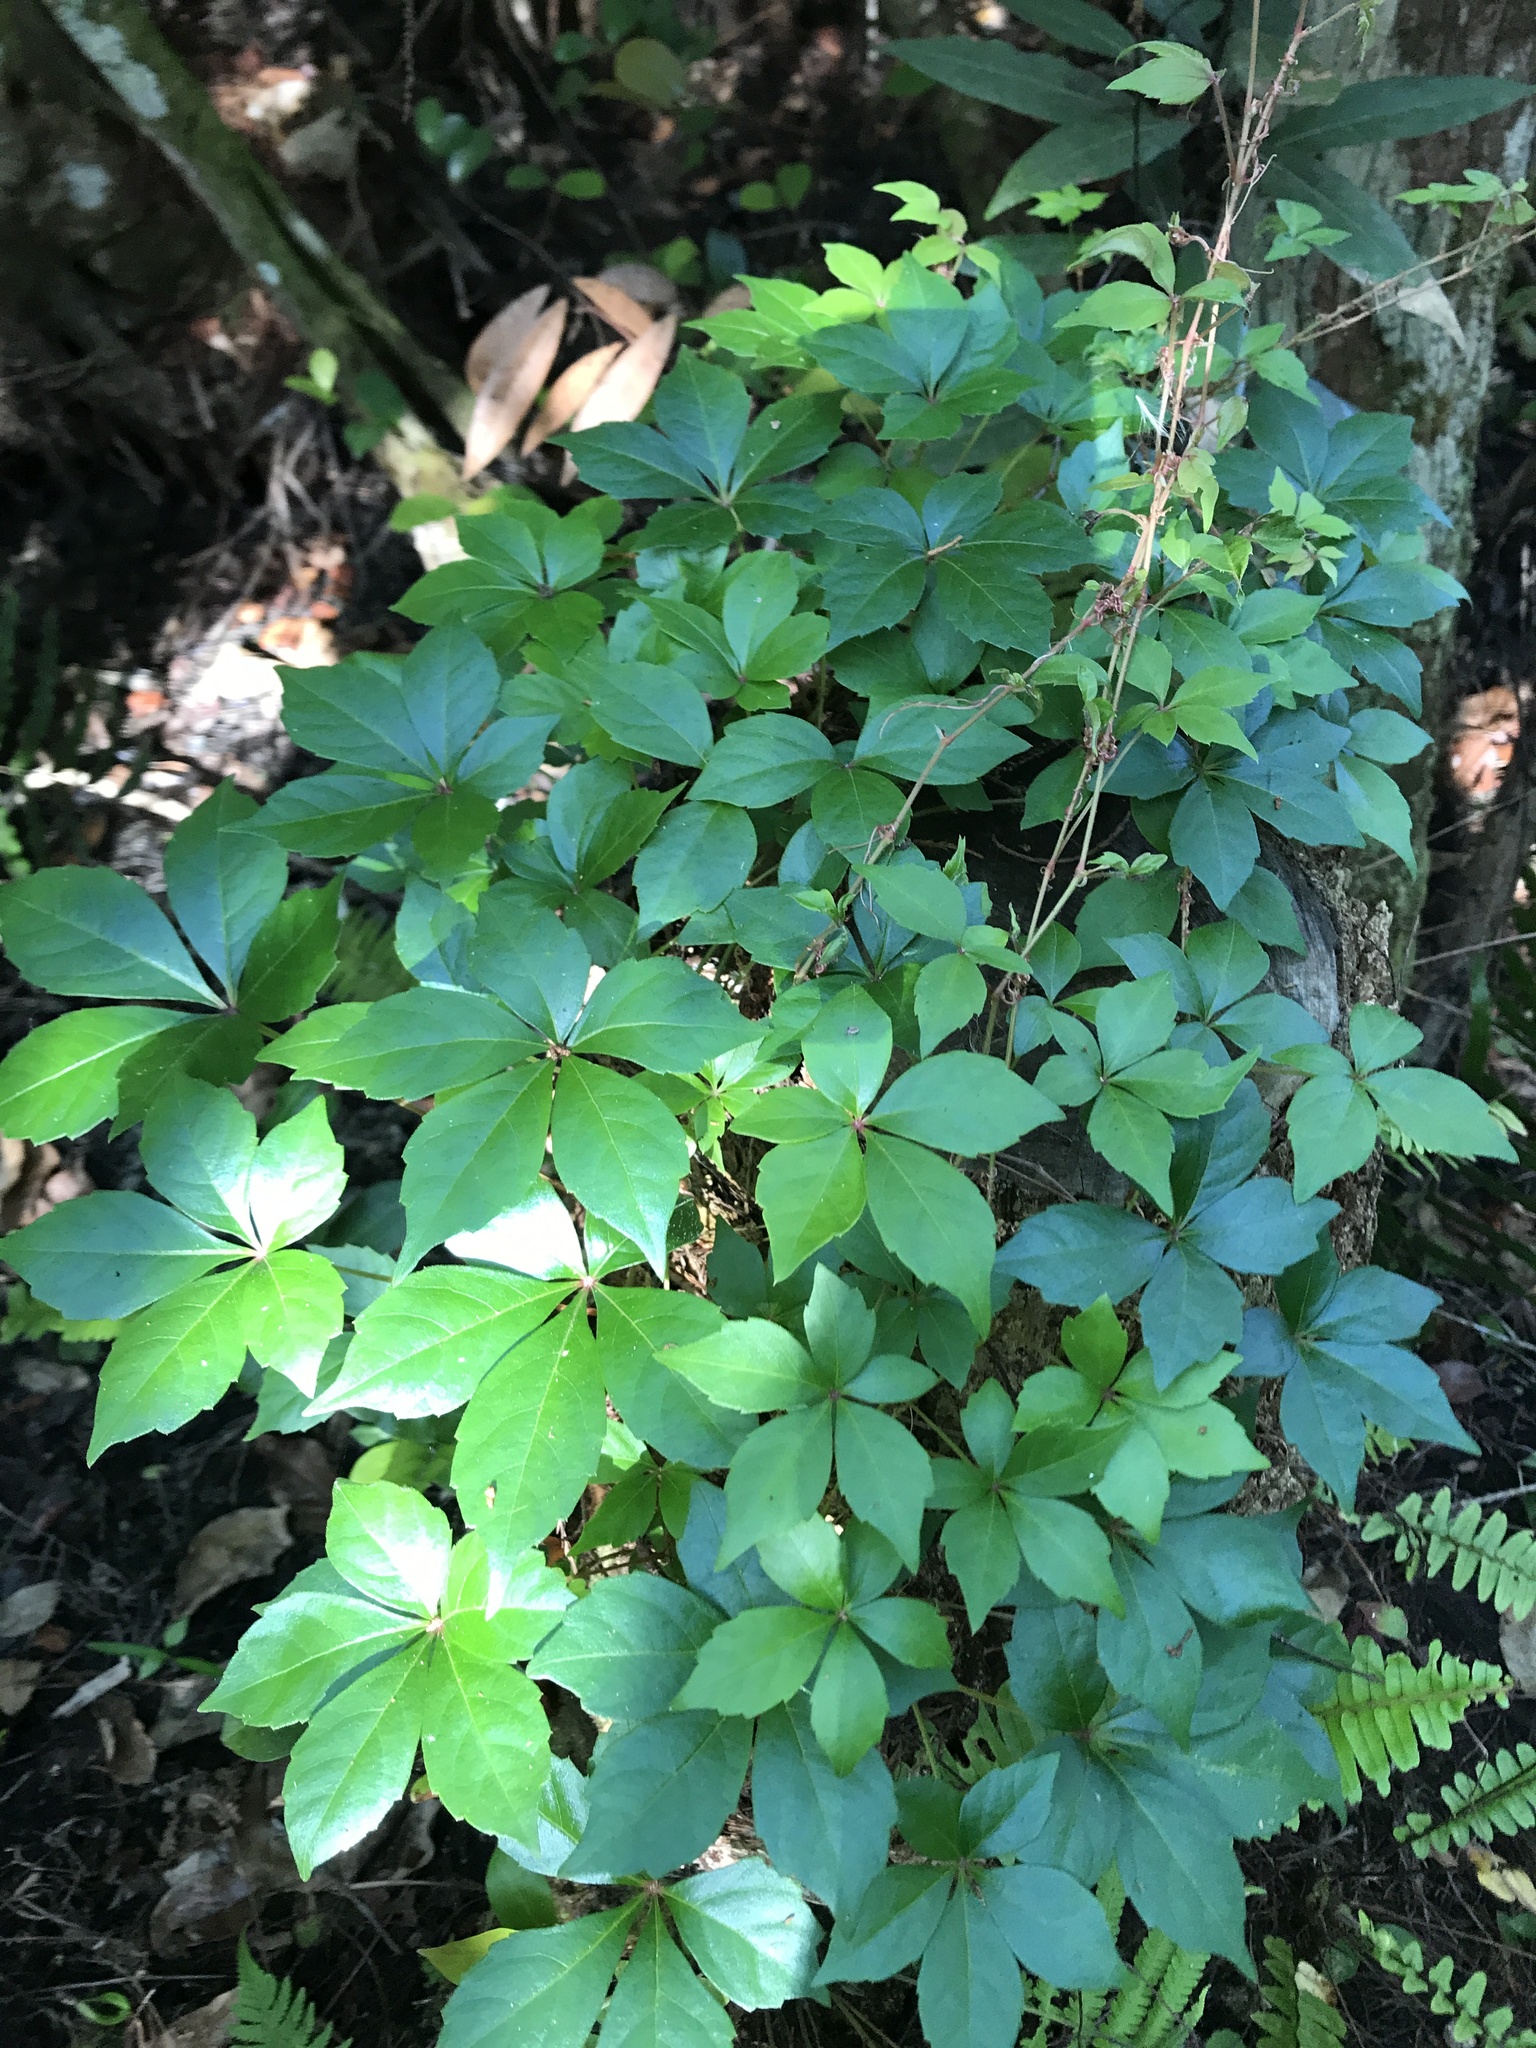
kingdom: Plantae
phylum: Tracheophyta
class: Magnoliopsida
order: Vitales
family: Vitaceae
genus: Parthenocissus
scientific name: Parthenocissus quinquefolia
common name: Virginia-creeper
